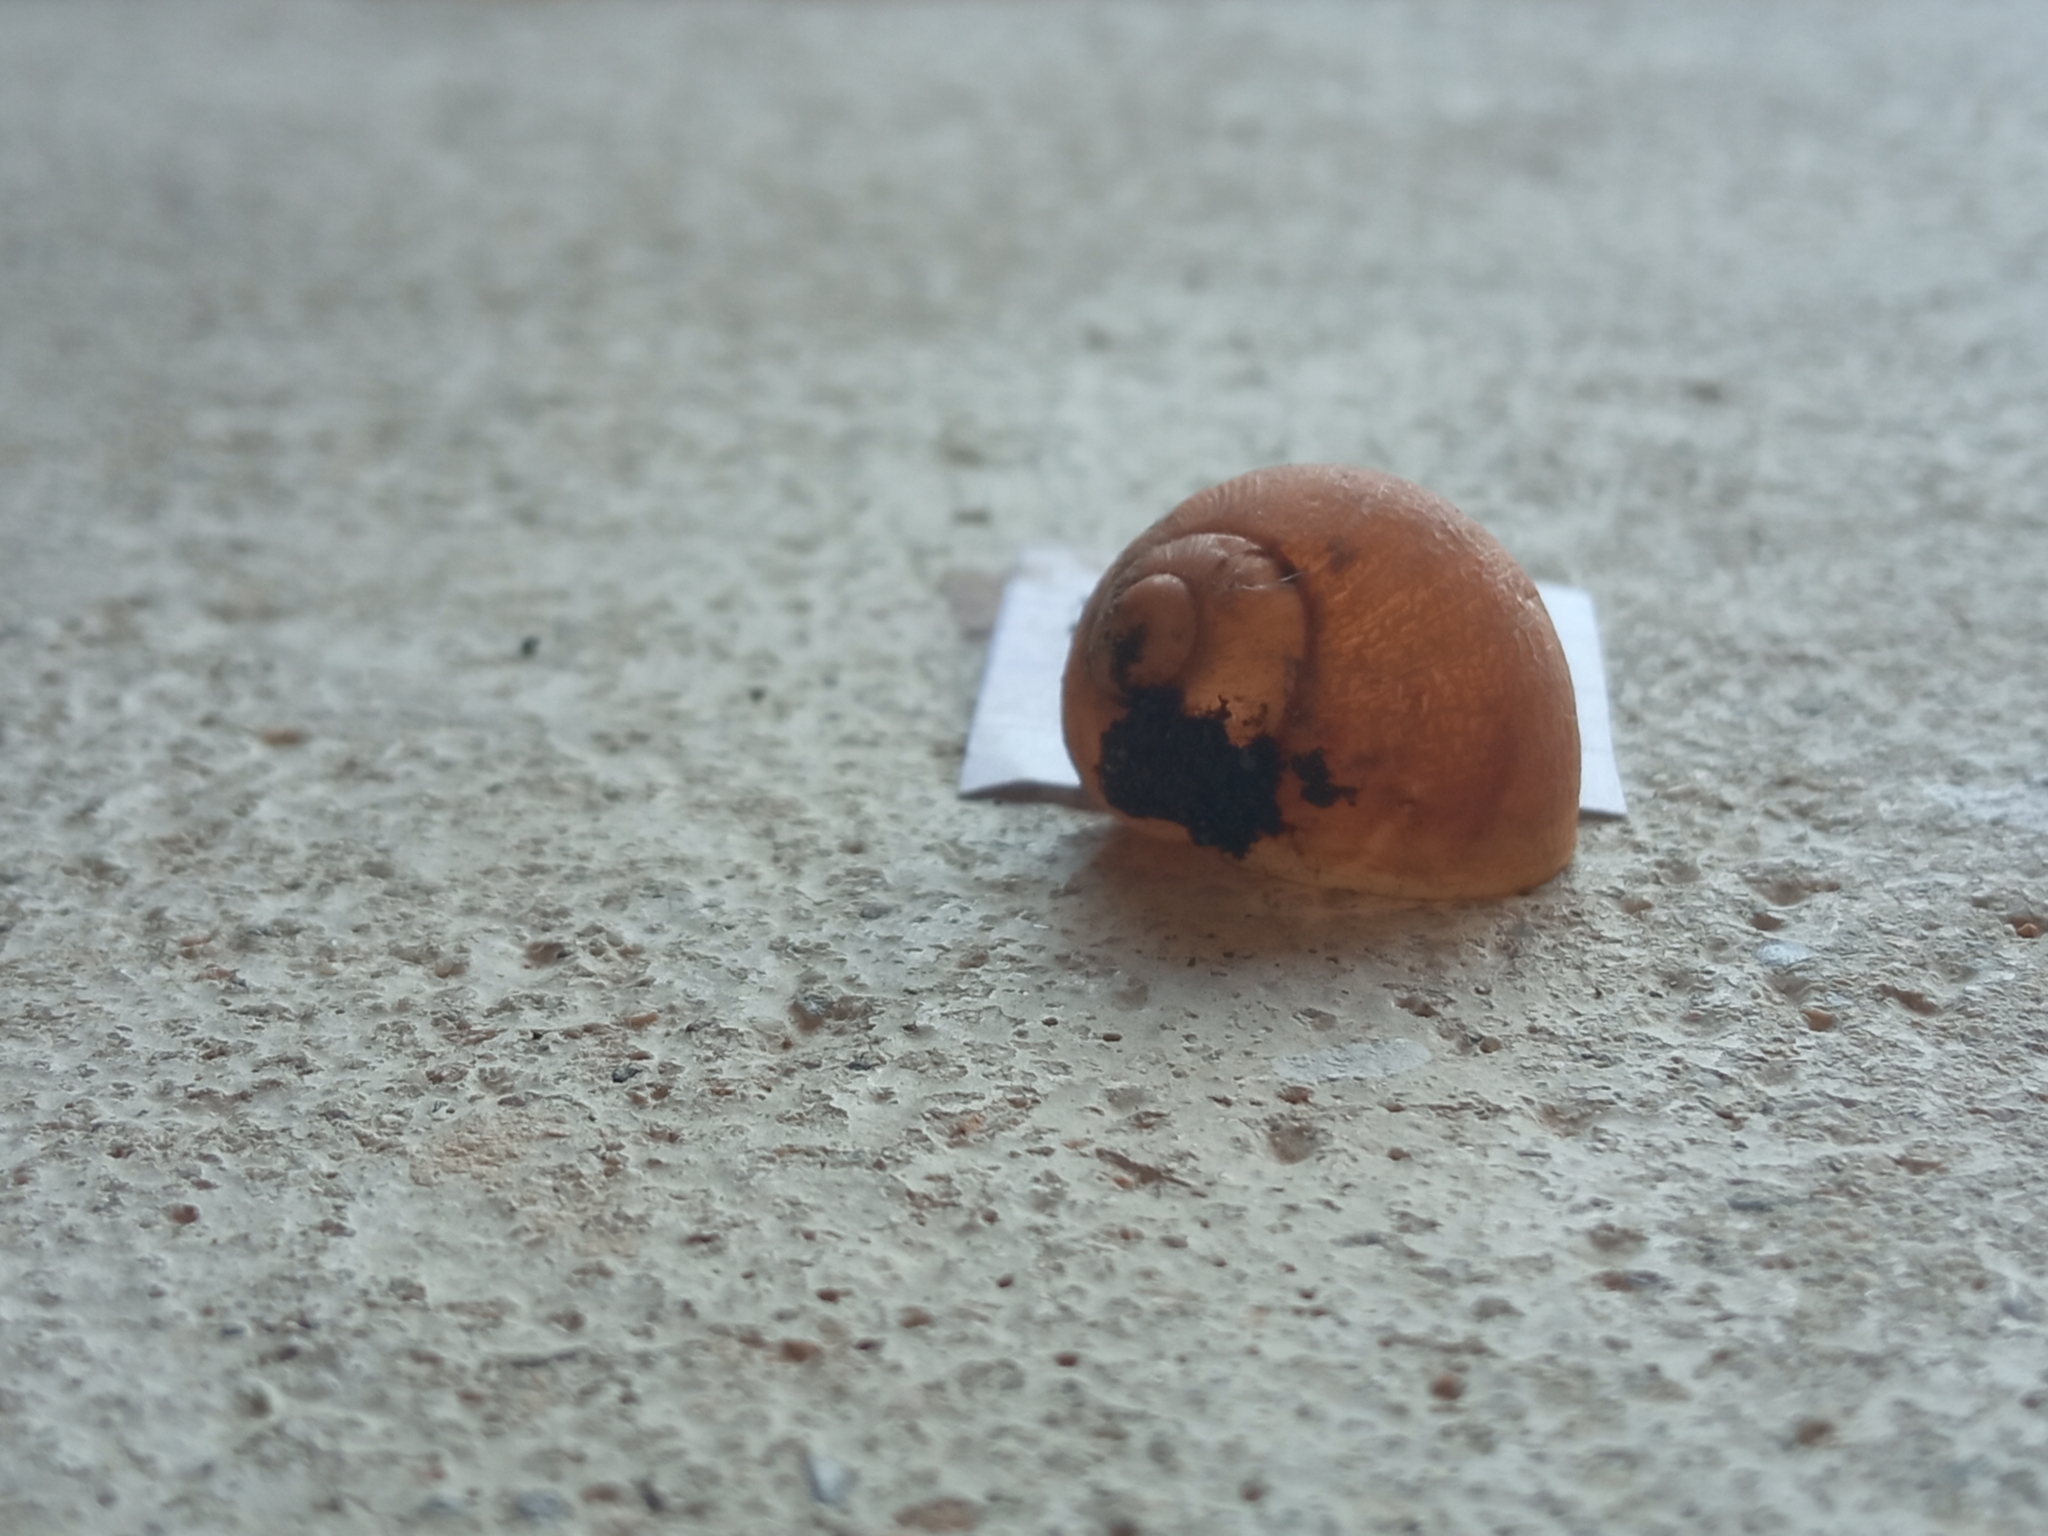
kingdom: Animalia
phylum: Mollusca
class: Gastropoda
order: Stylommatophora
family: Helicidae
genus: Cornu
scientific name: Cornu aspersum
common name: Brown garden snail
